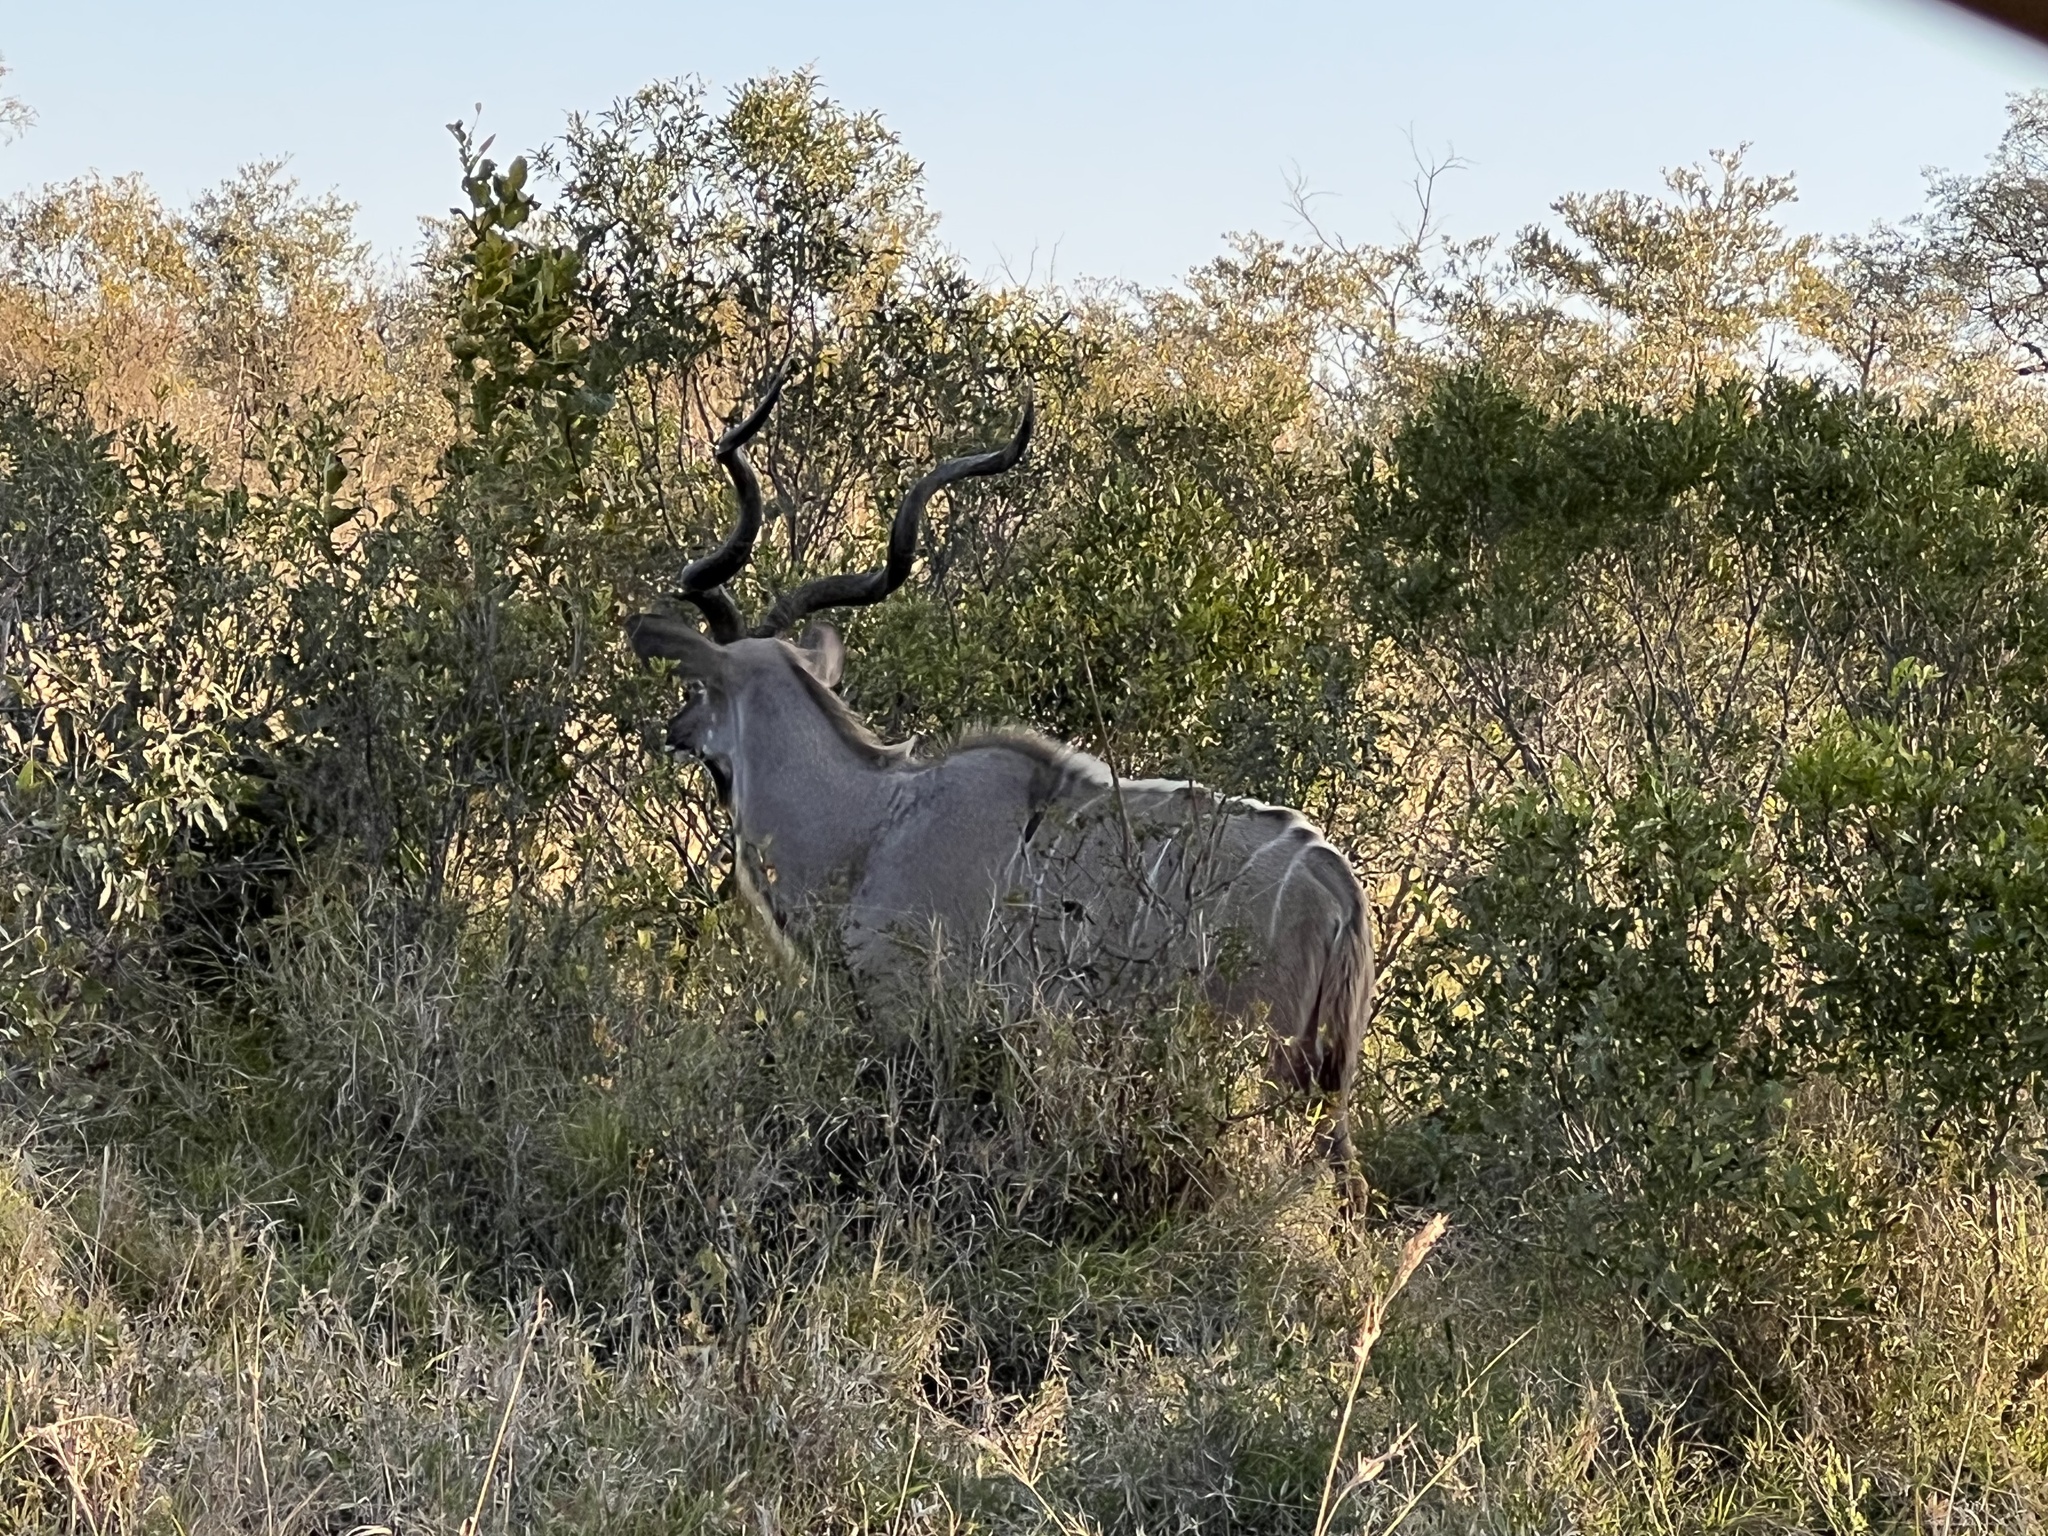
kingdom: Animalia
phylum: Chordata
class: Mammalia
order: Artiodactyla
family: Bovidae
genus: Tragelaphus
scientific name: Tragelaphus strepsiceros
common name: Greater kudu
